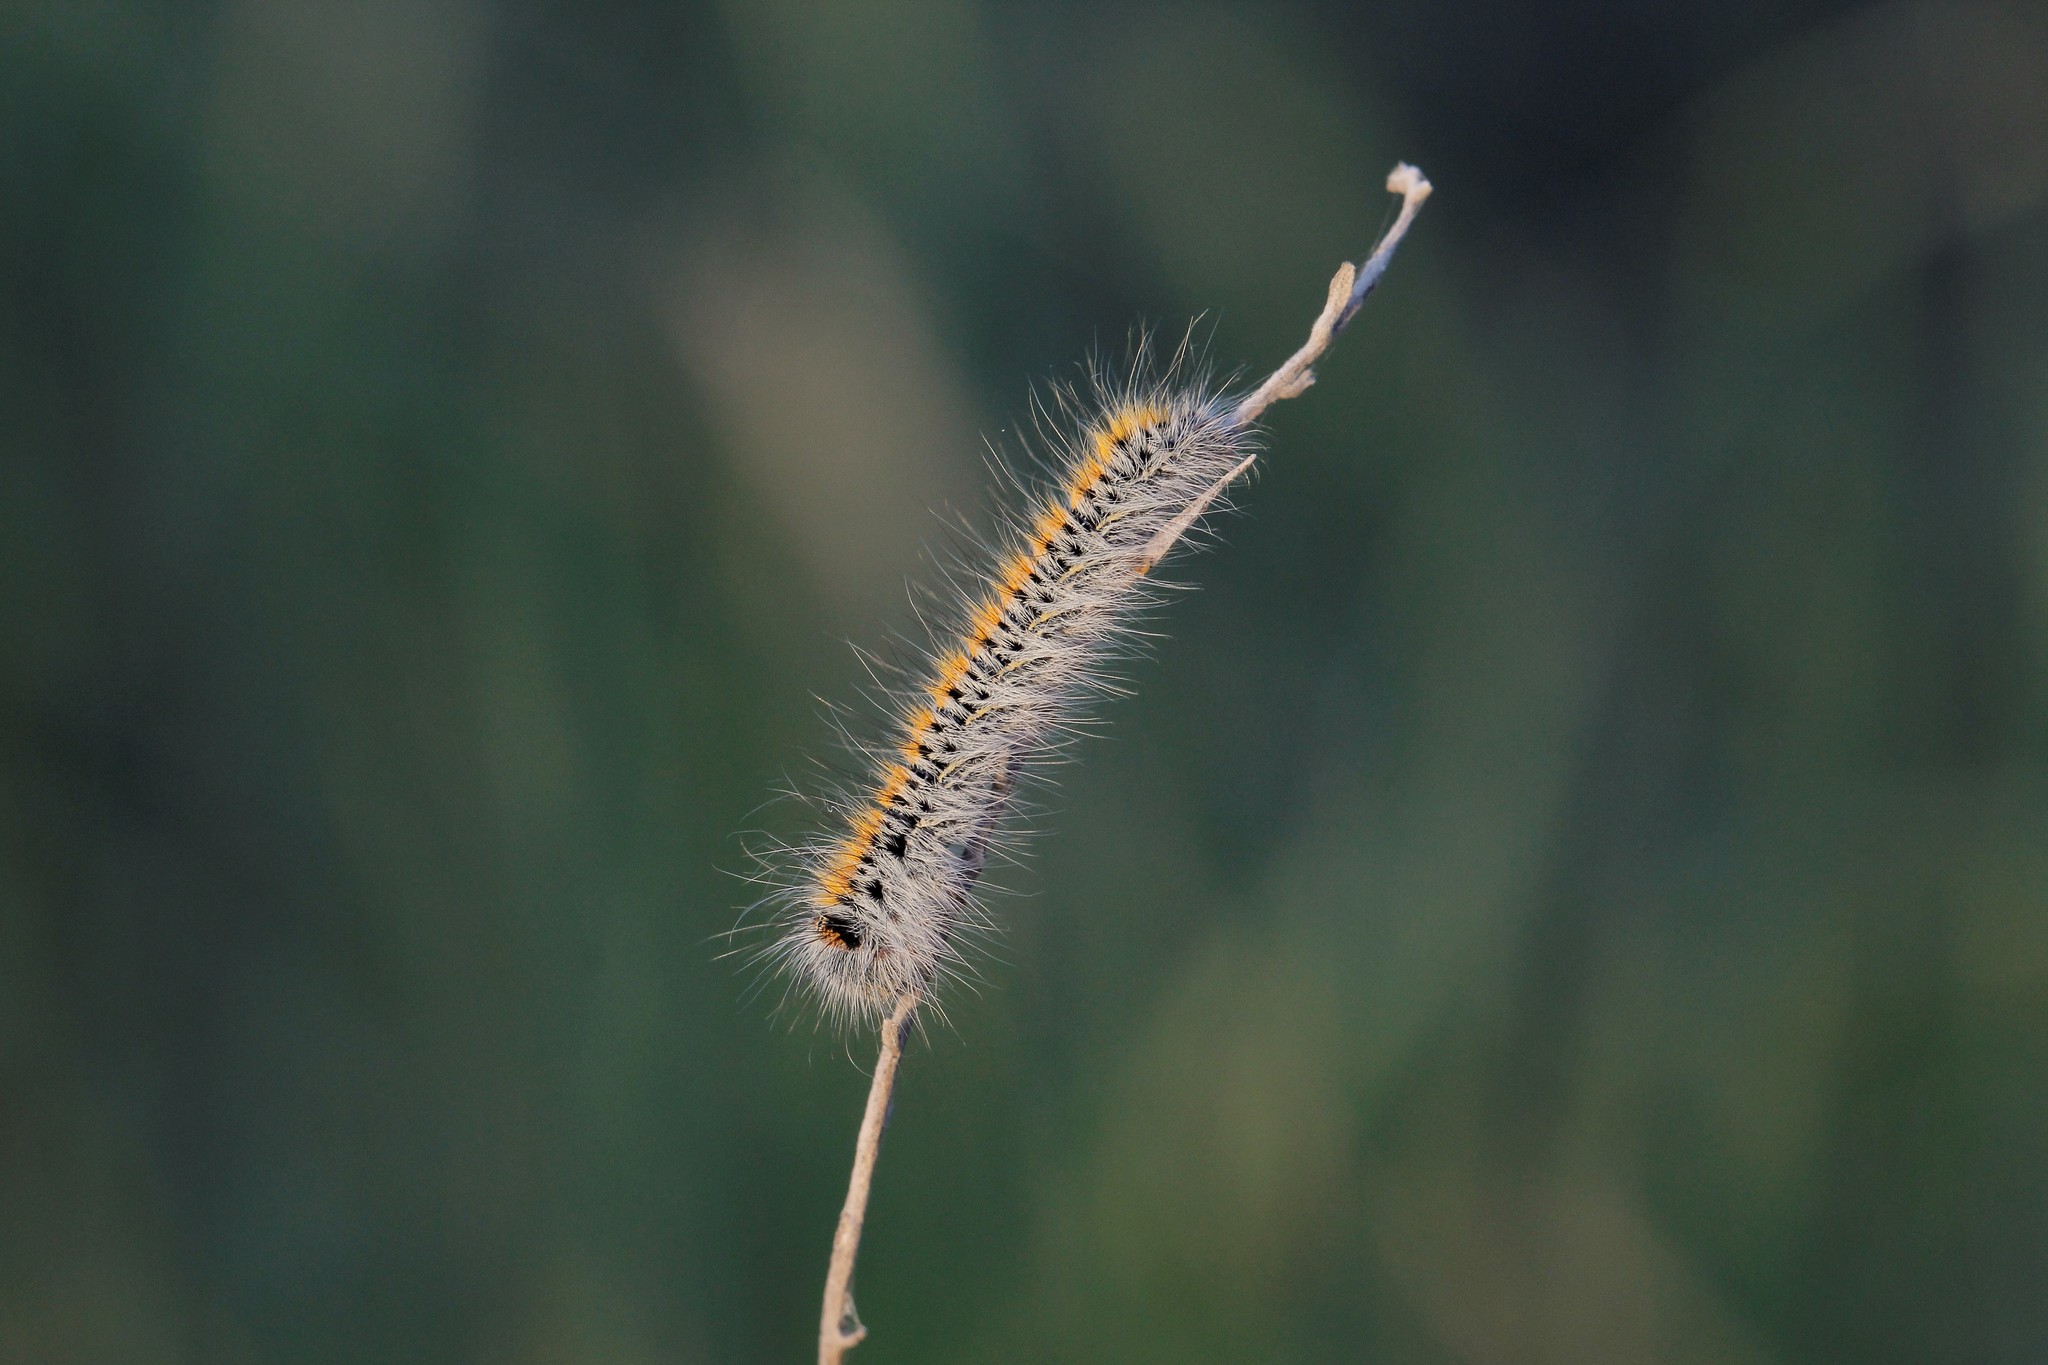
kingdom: Animalia
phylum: Arthropoda
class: Insecta
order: Lepidoptera
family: Lasiocampidae
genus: Lasiocampa
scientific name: Lasiocampa trifolii
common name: Grass eggar
